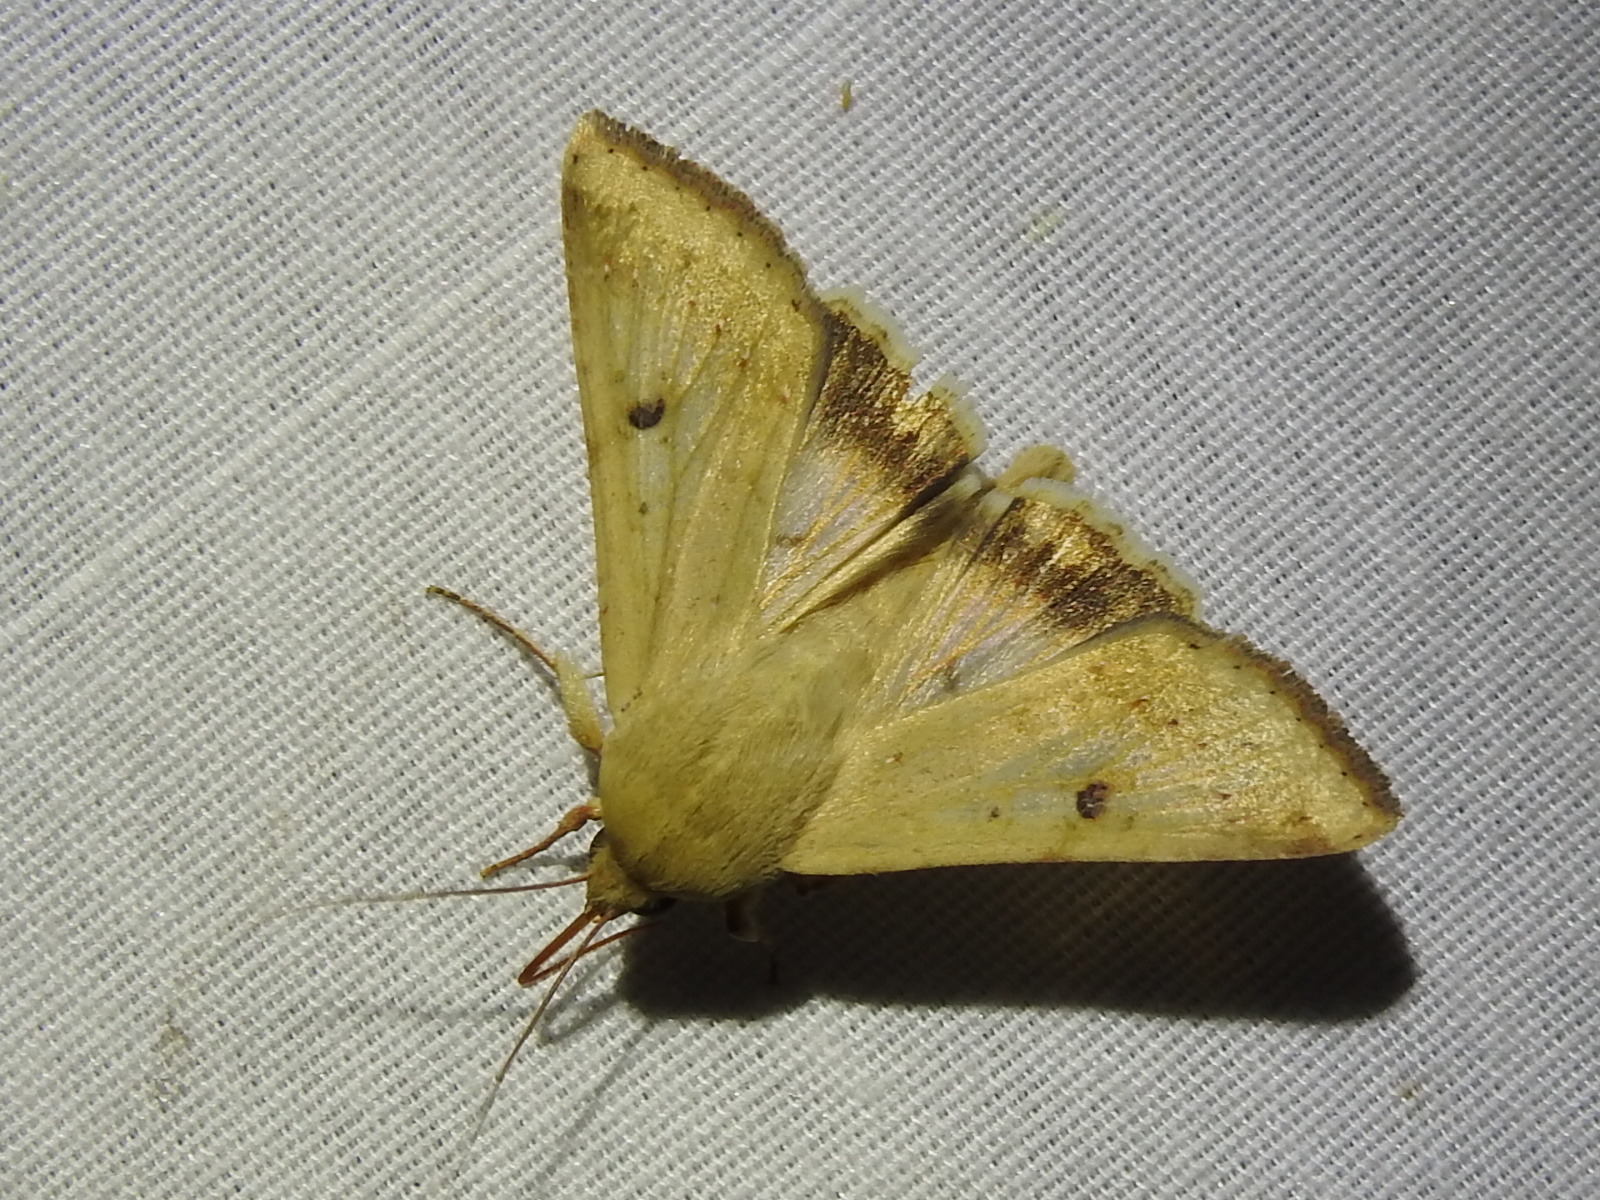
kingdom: Animalia
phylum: Arthropoda
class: Insecta
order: Lepidoptera
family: Noctuidae
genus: Helicoverpa
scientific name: Helicoverpa zea
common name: Bollworm
